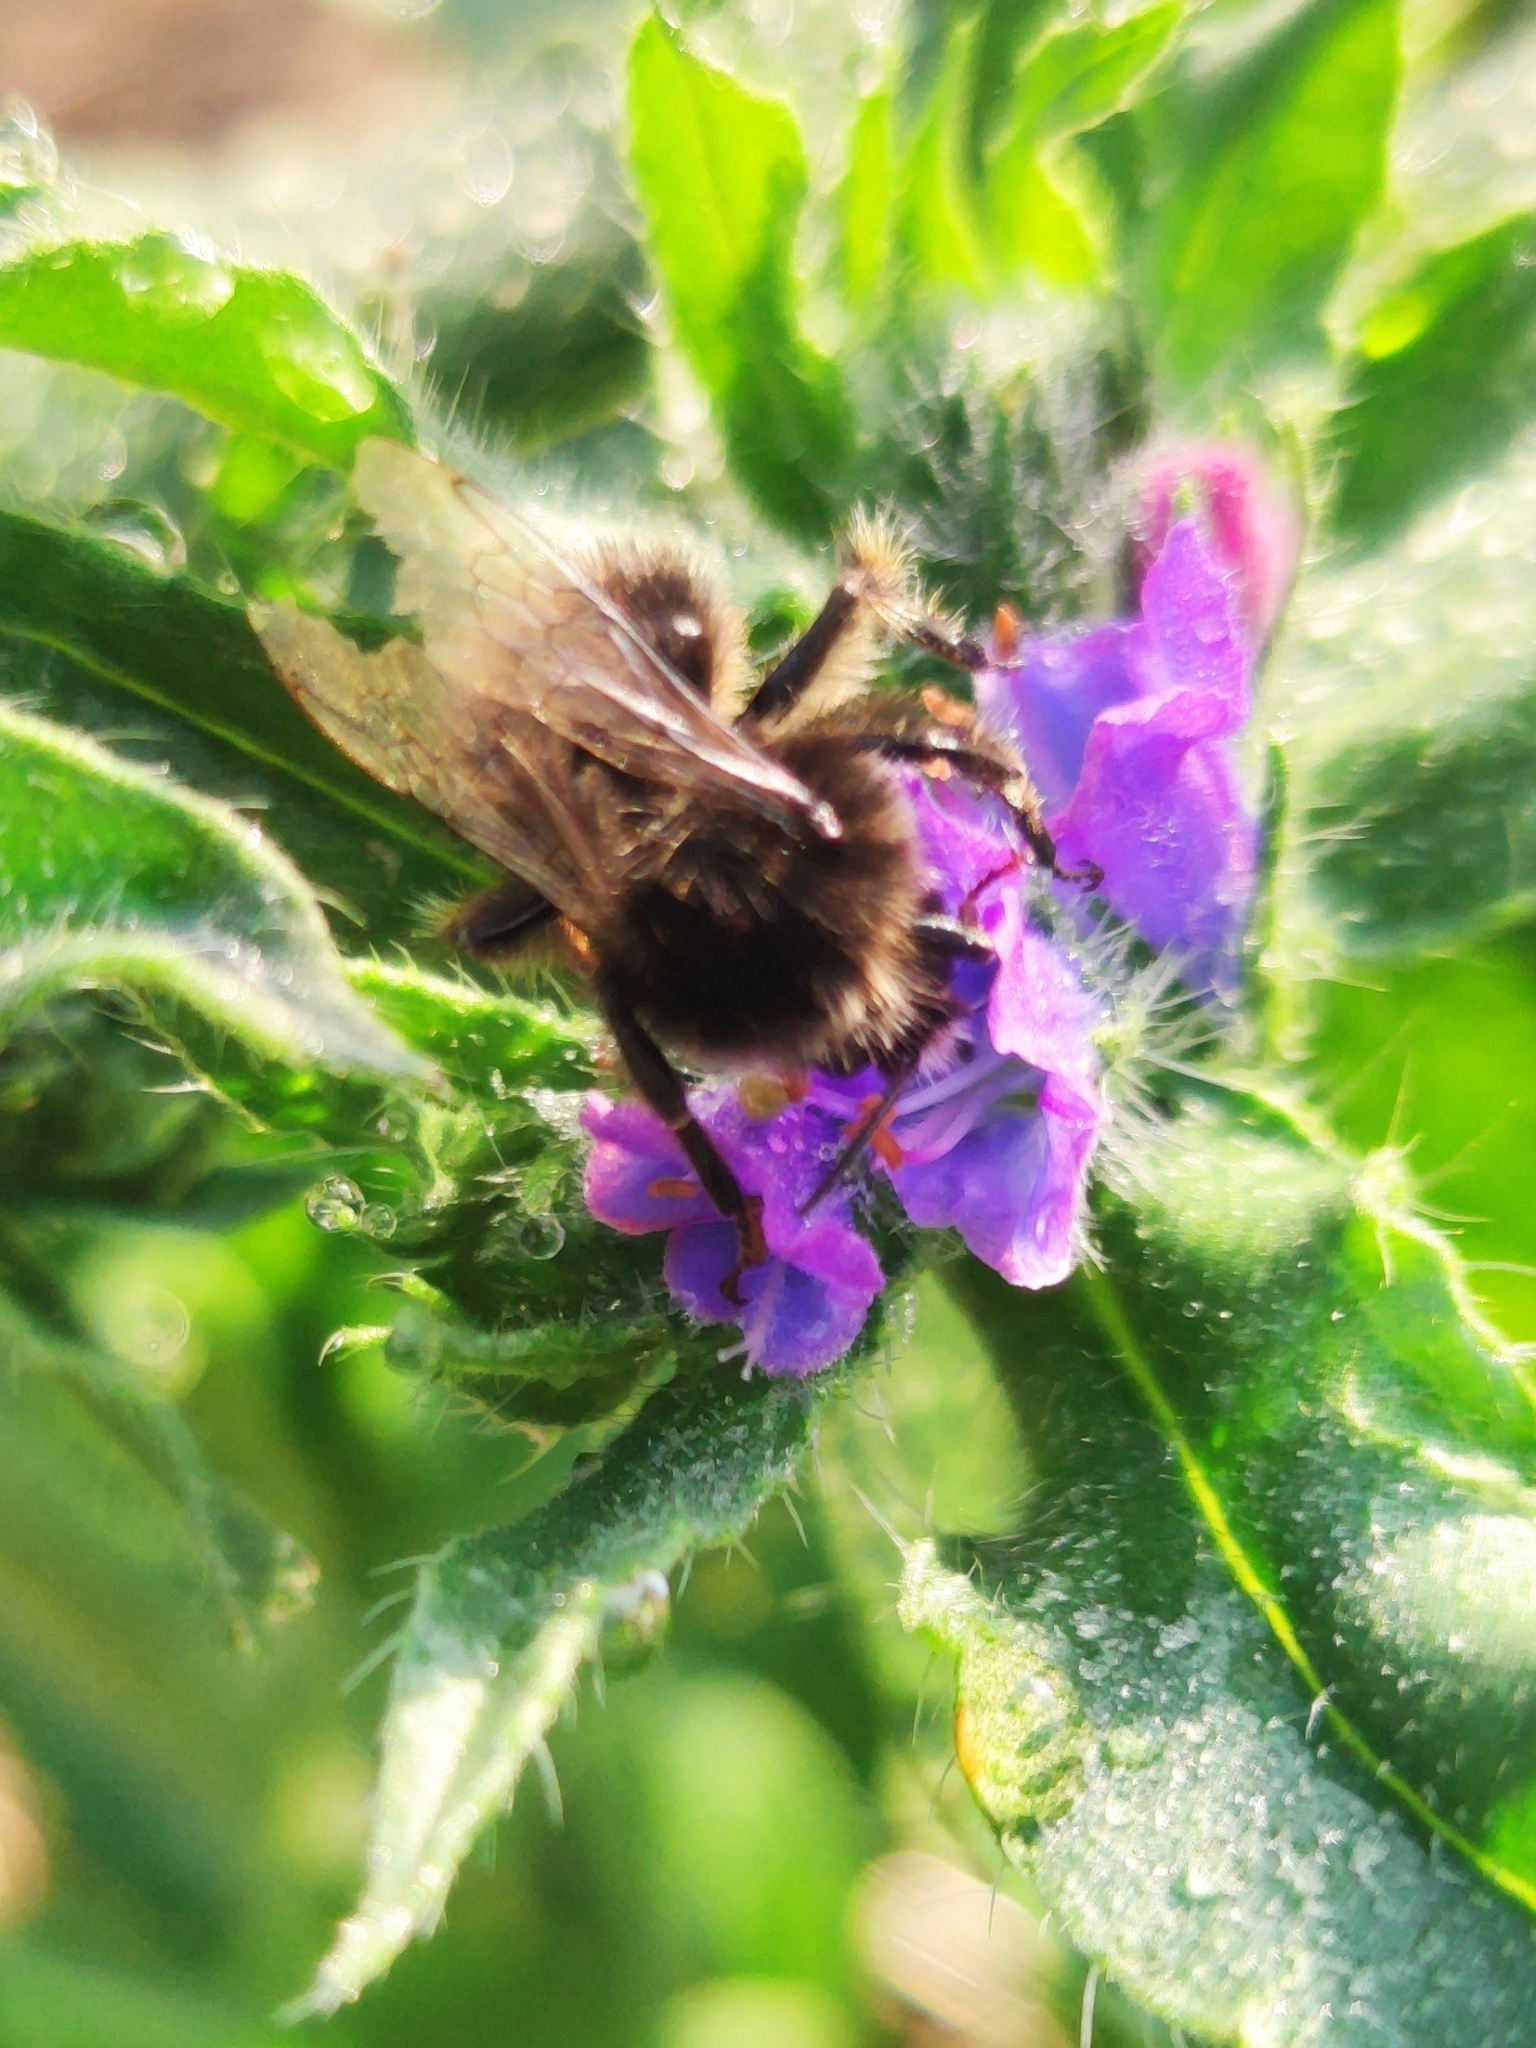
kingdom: Animalia
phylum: Arthropoda
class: Insecta
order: Hymenoptera
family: Apidae
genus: Bombus
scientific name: Bombus lapidarius
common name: Large red-tailed humble-bee
